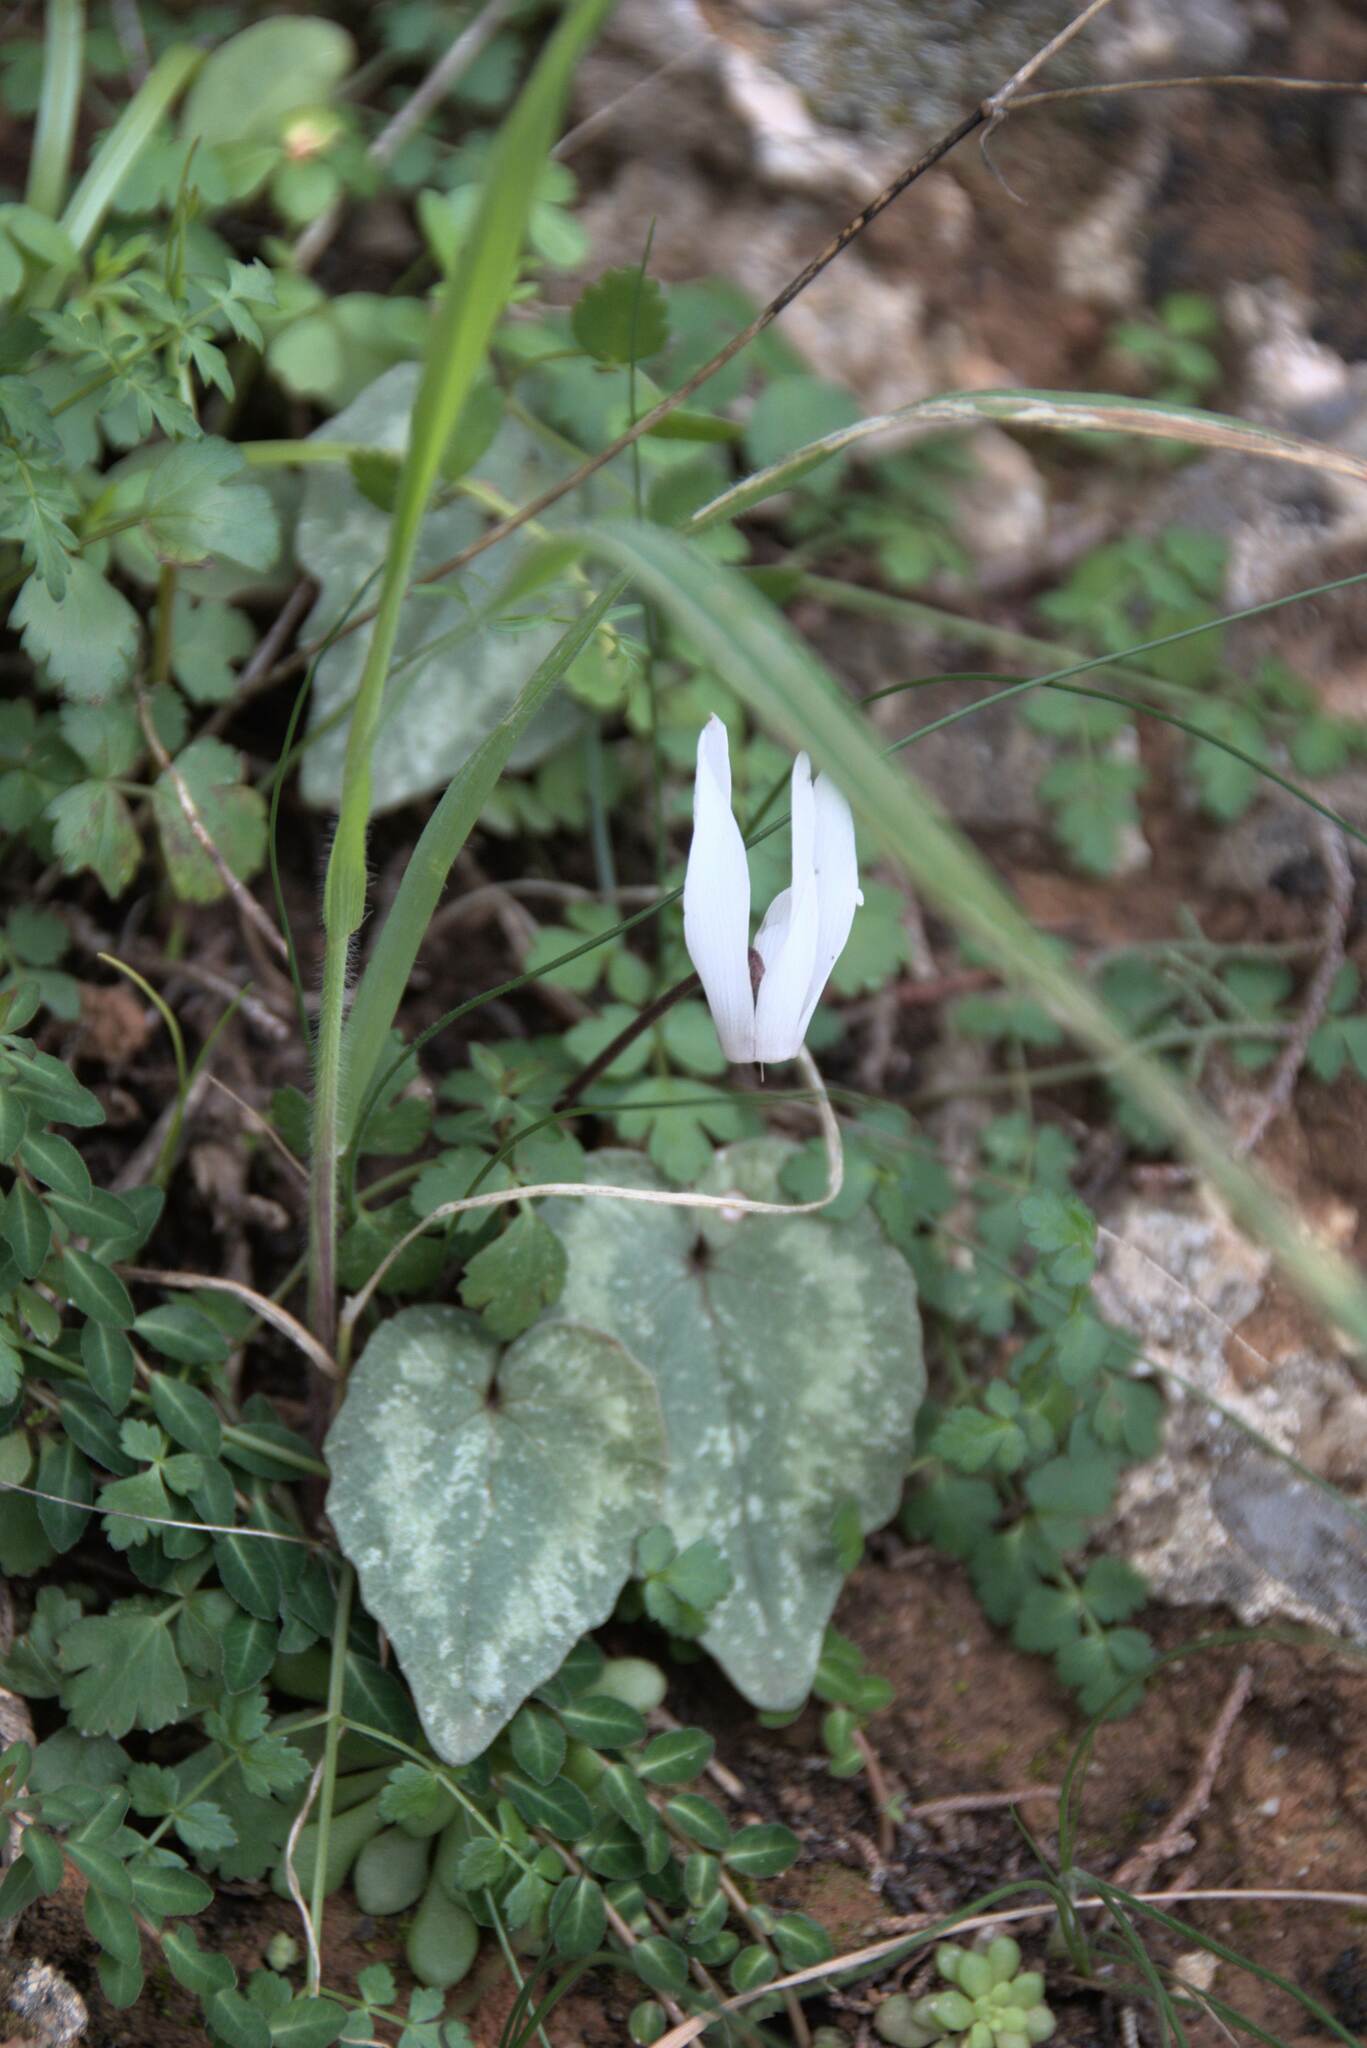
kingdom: Plantae
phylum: Tracheophyta
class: Magnoliopsida
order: Ericales
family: Primulaceae
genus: Cyclamen
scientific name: Cyclamen creticum
